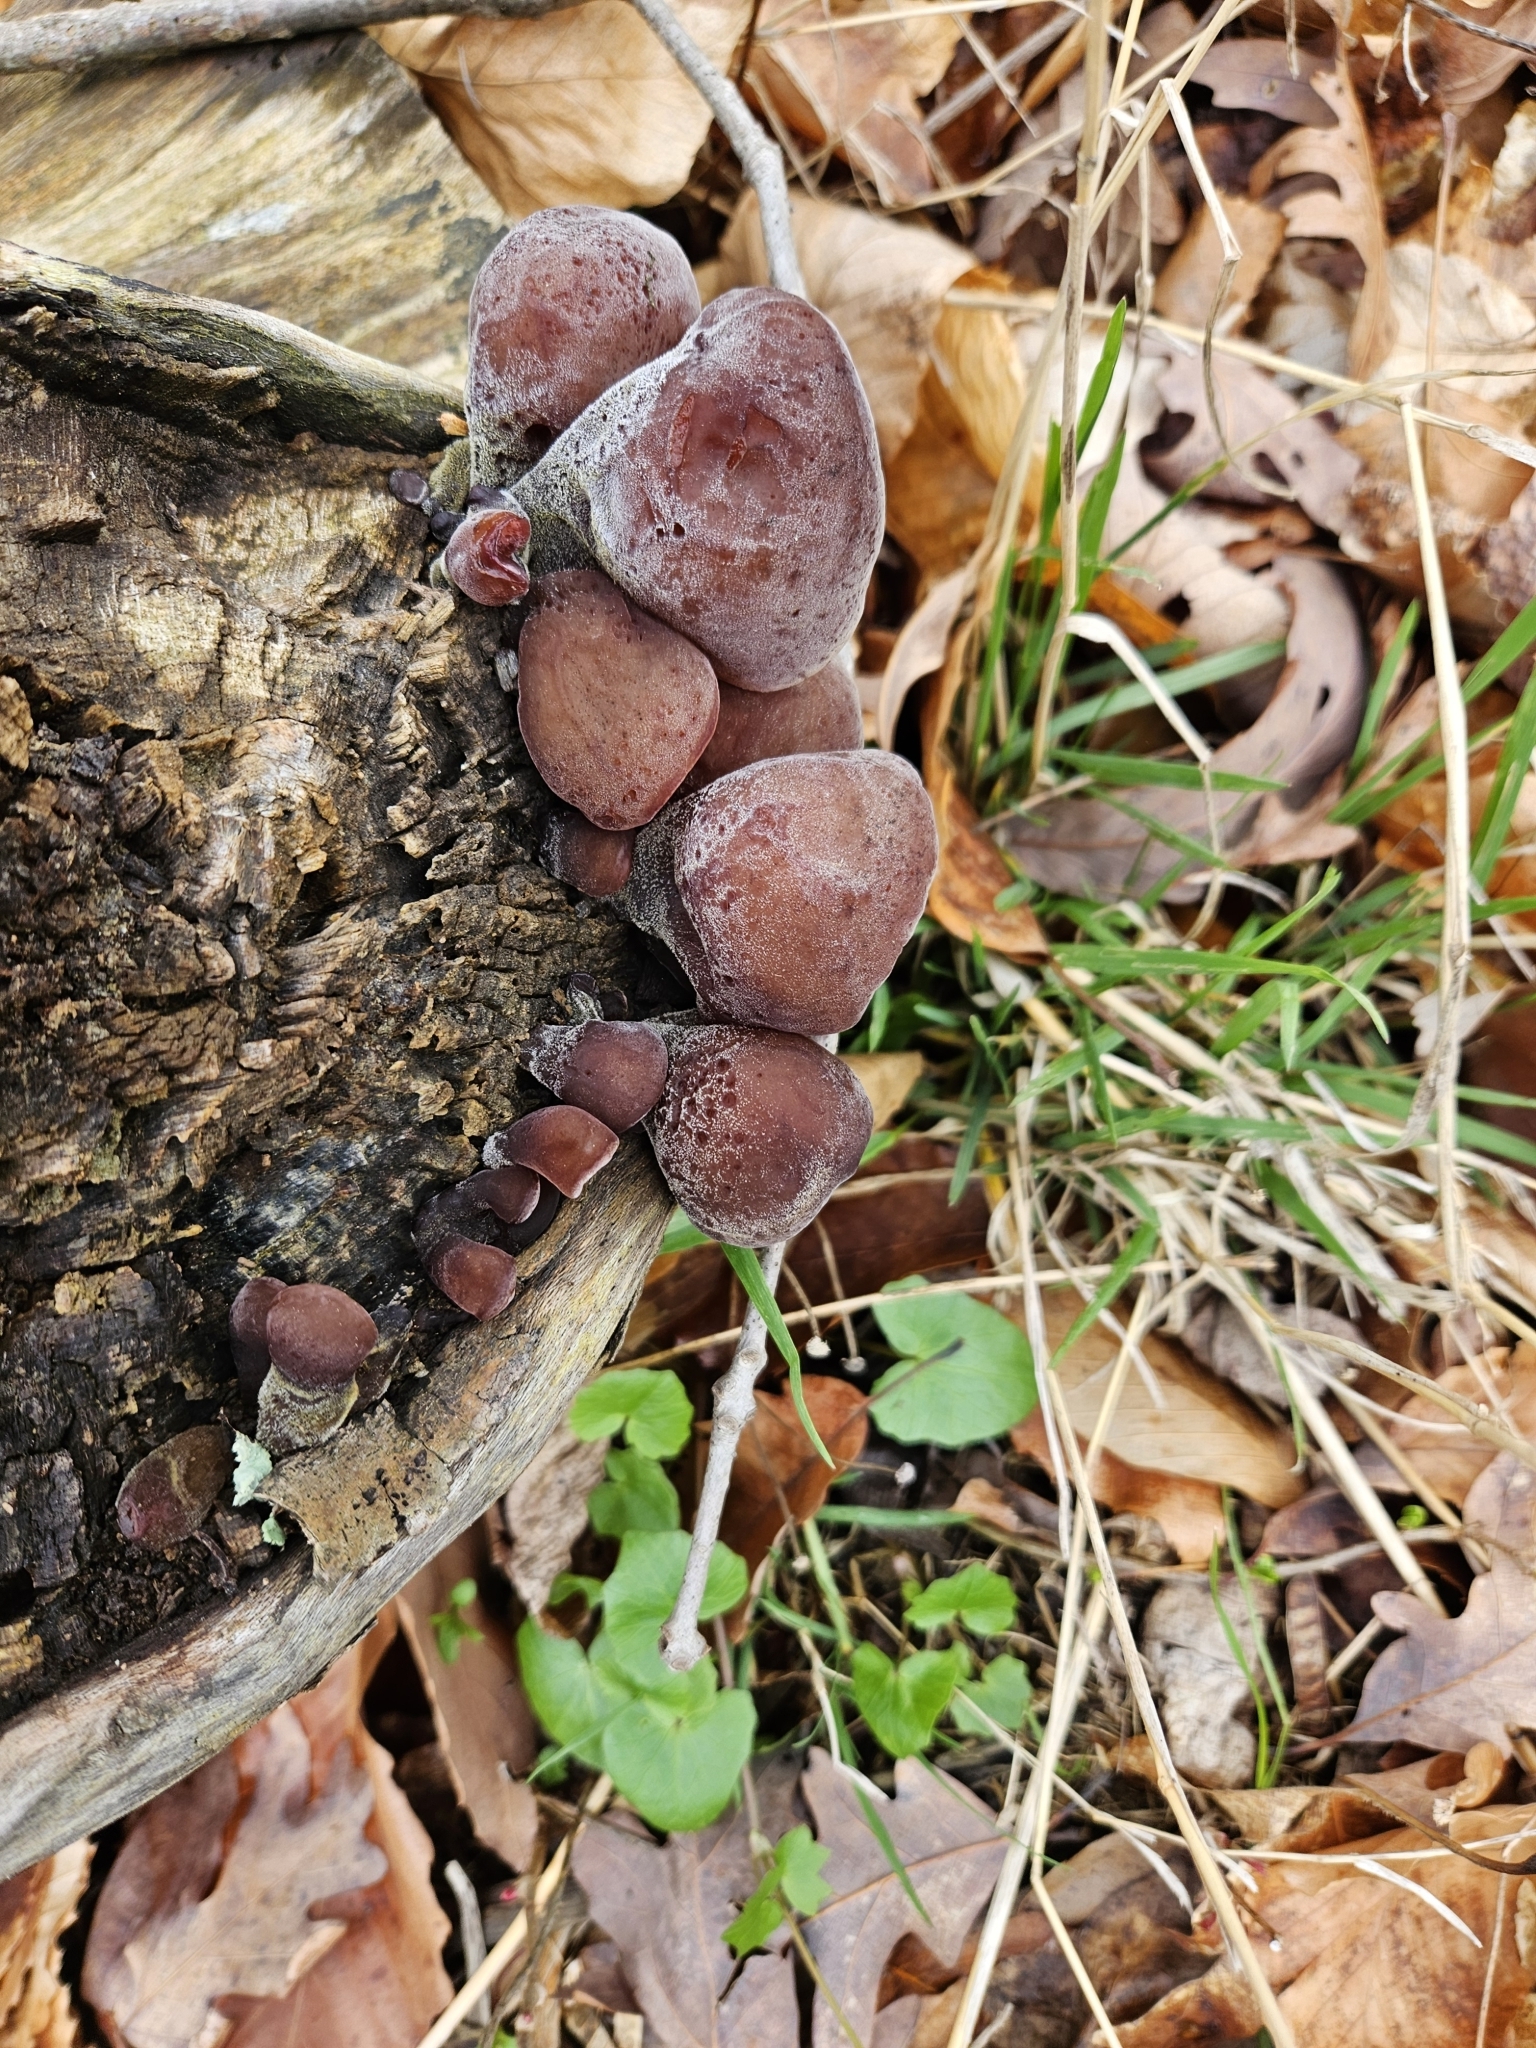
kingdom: Fungi
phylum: Basidiomycota
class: Agaricomycetes
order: Auriculariales
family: Auriculariaceae
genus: Auricularia
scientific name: Auricularia nigricans
